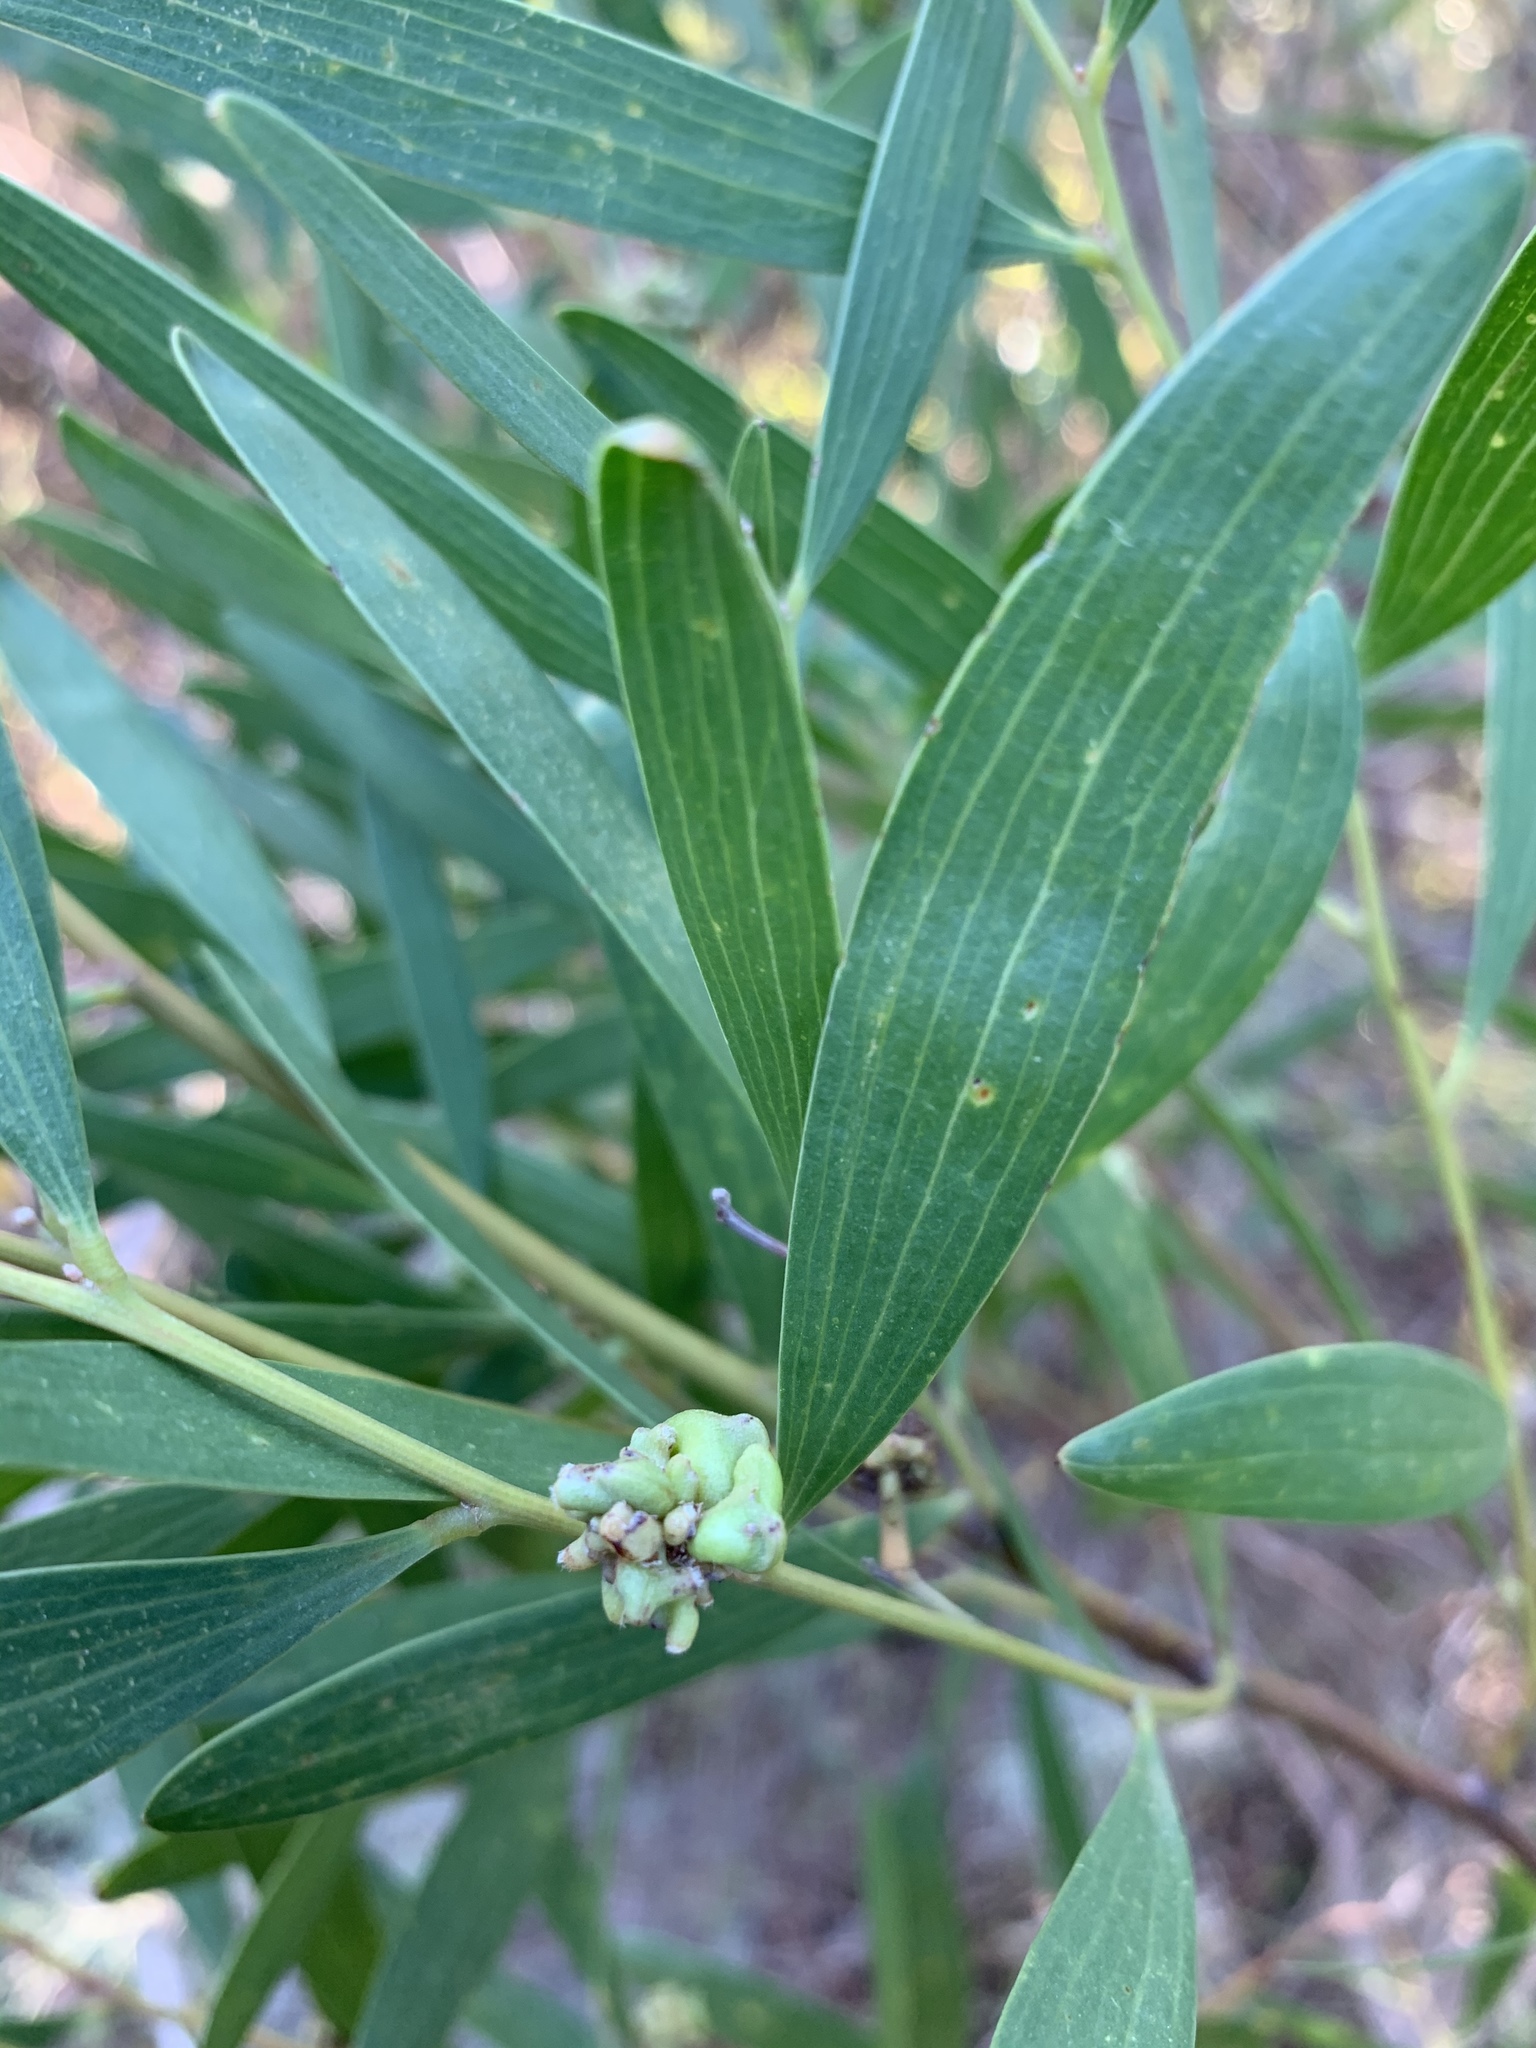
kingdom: Animalia
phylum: Arthropoda
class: Insecta
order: Diptera
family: Cecidomyiidae
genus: Dasineura
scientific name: Dasineura dielsi
